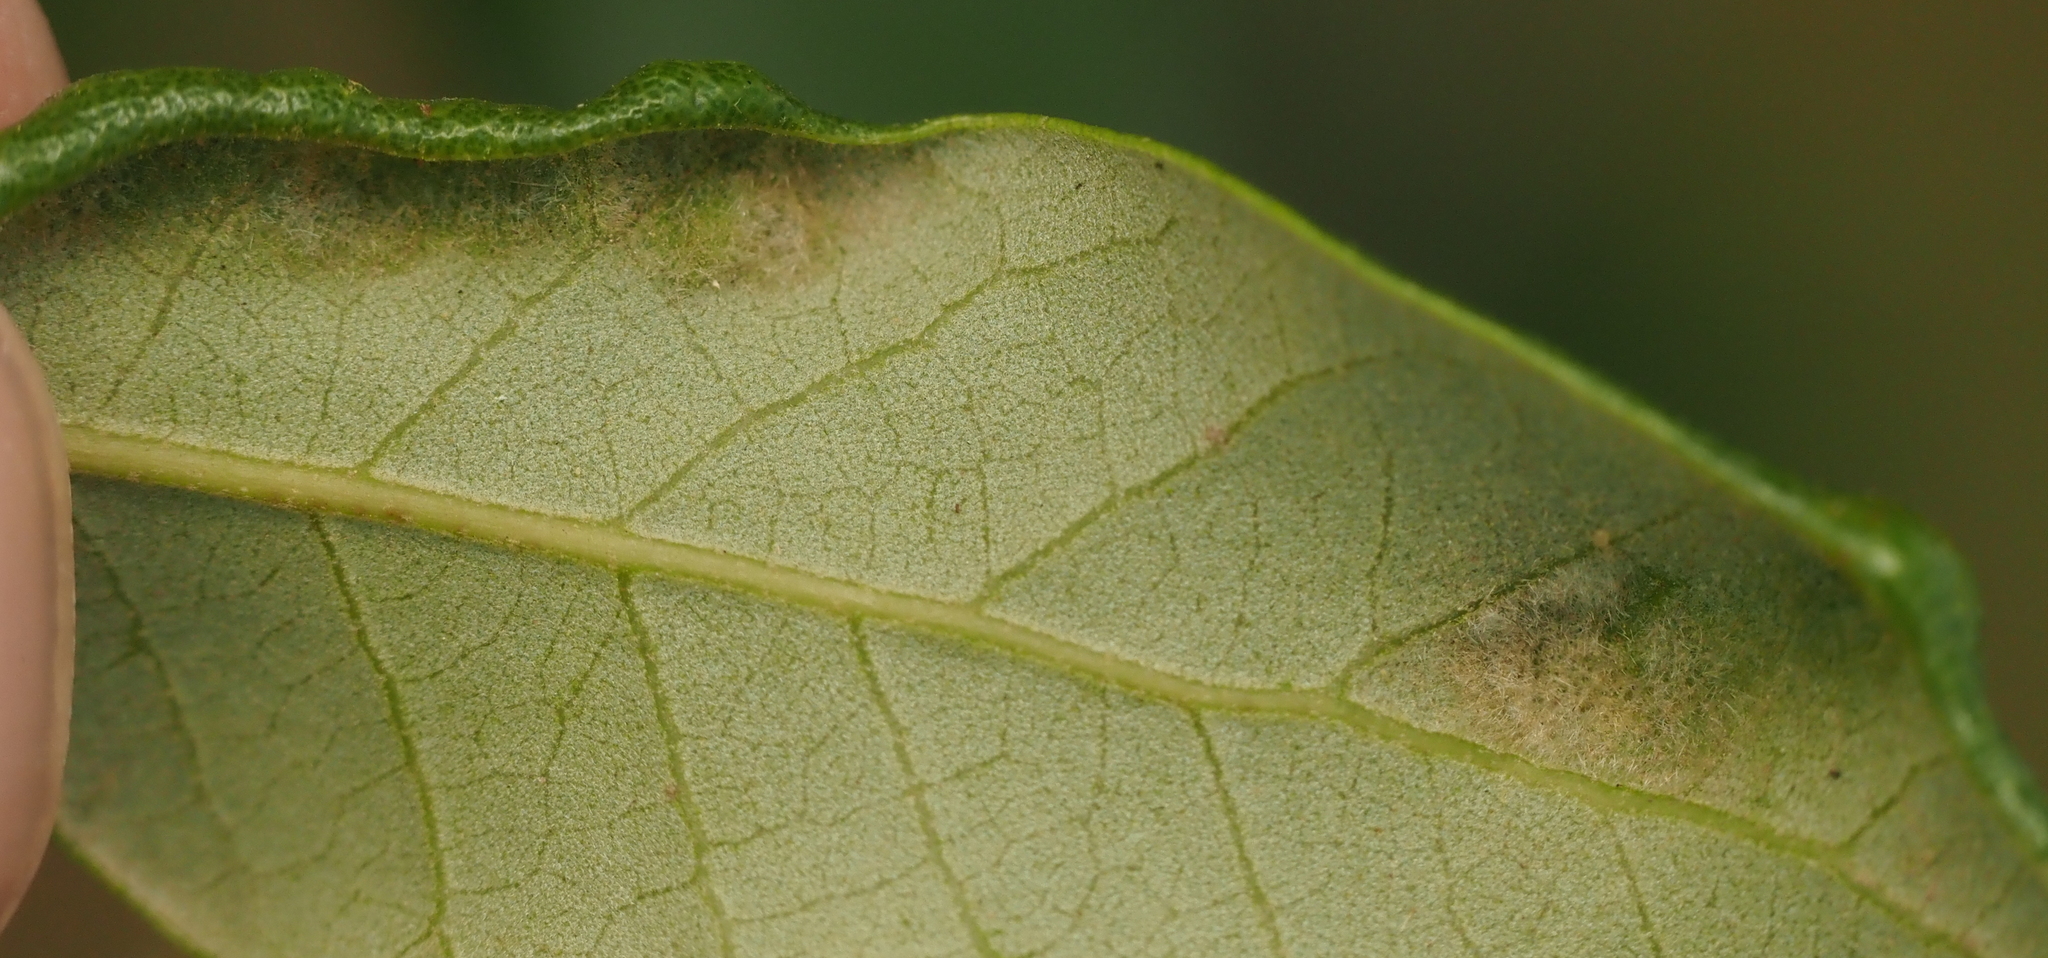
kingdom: Animalia
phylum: Arthropoda
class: Arachnida
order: Trombidiformes
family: Eriophyidae
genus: Aceria
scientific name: Aceria quercina
